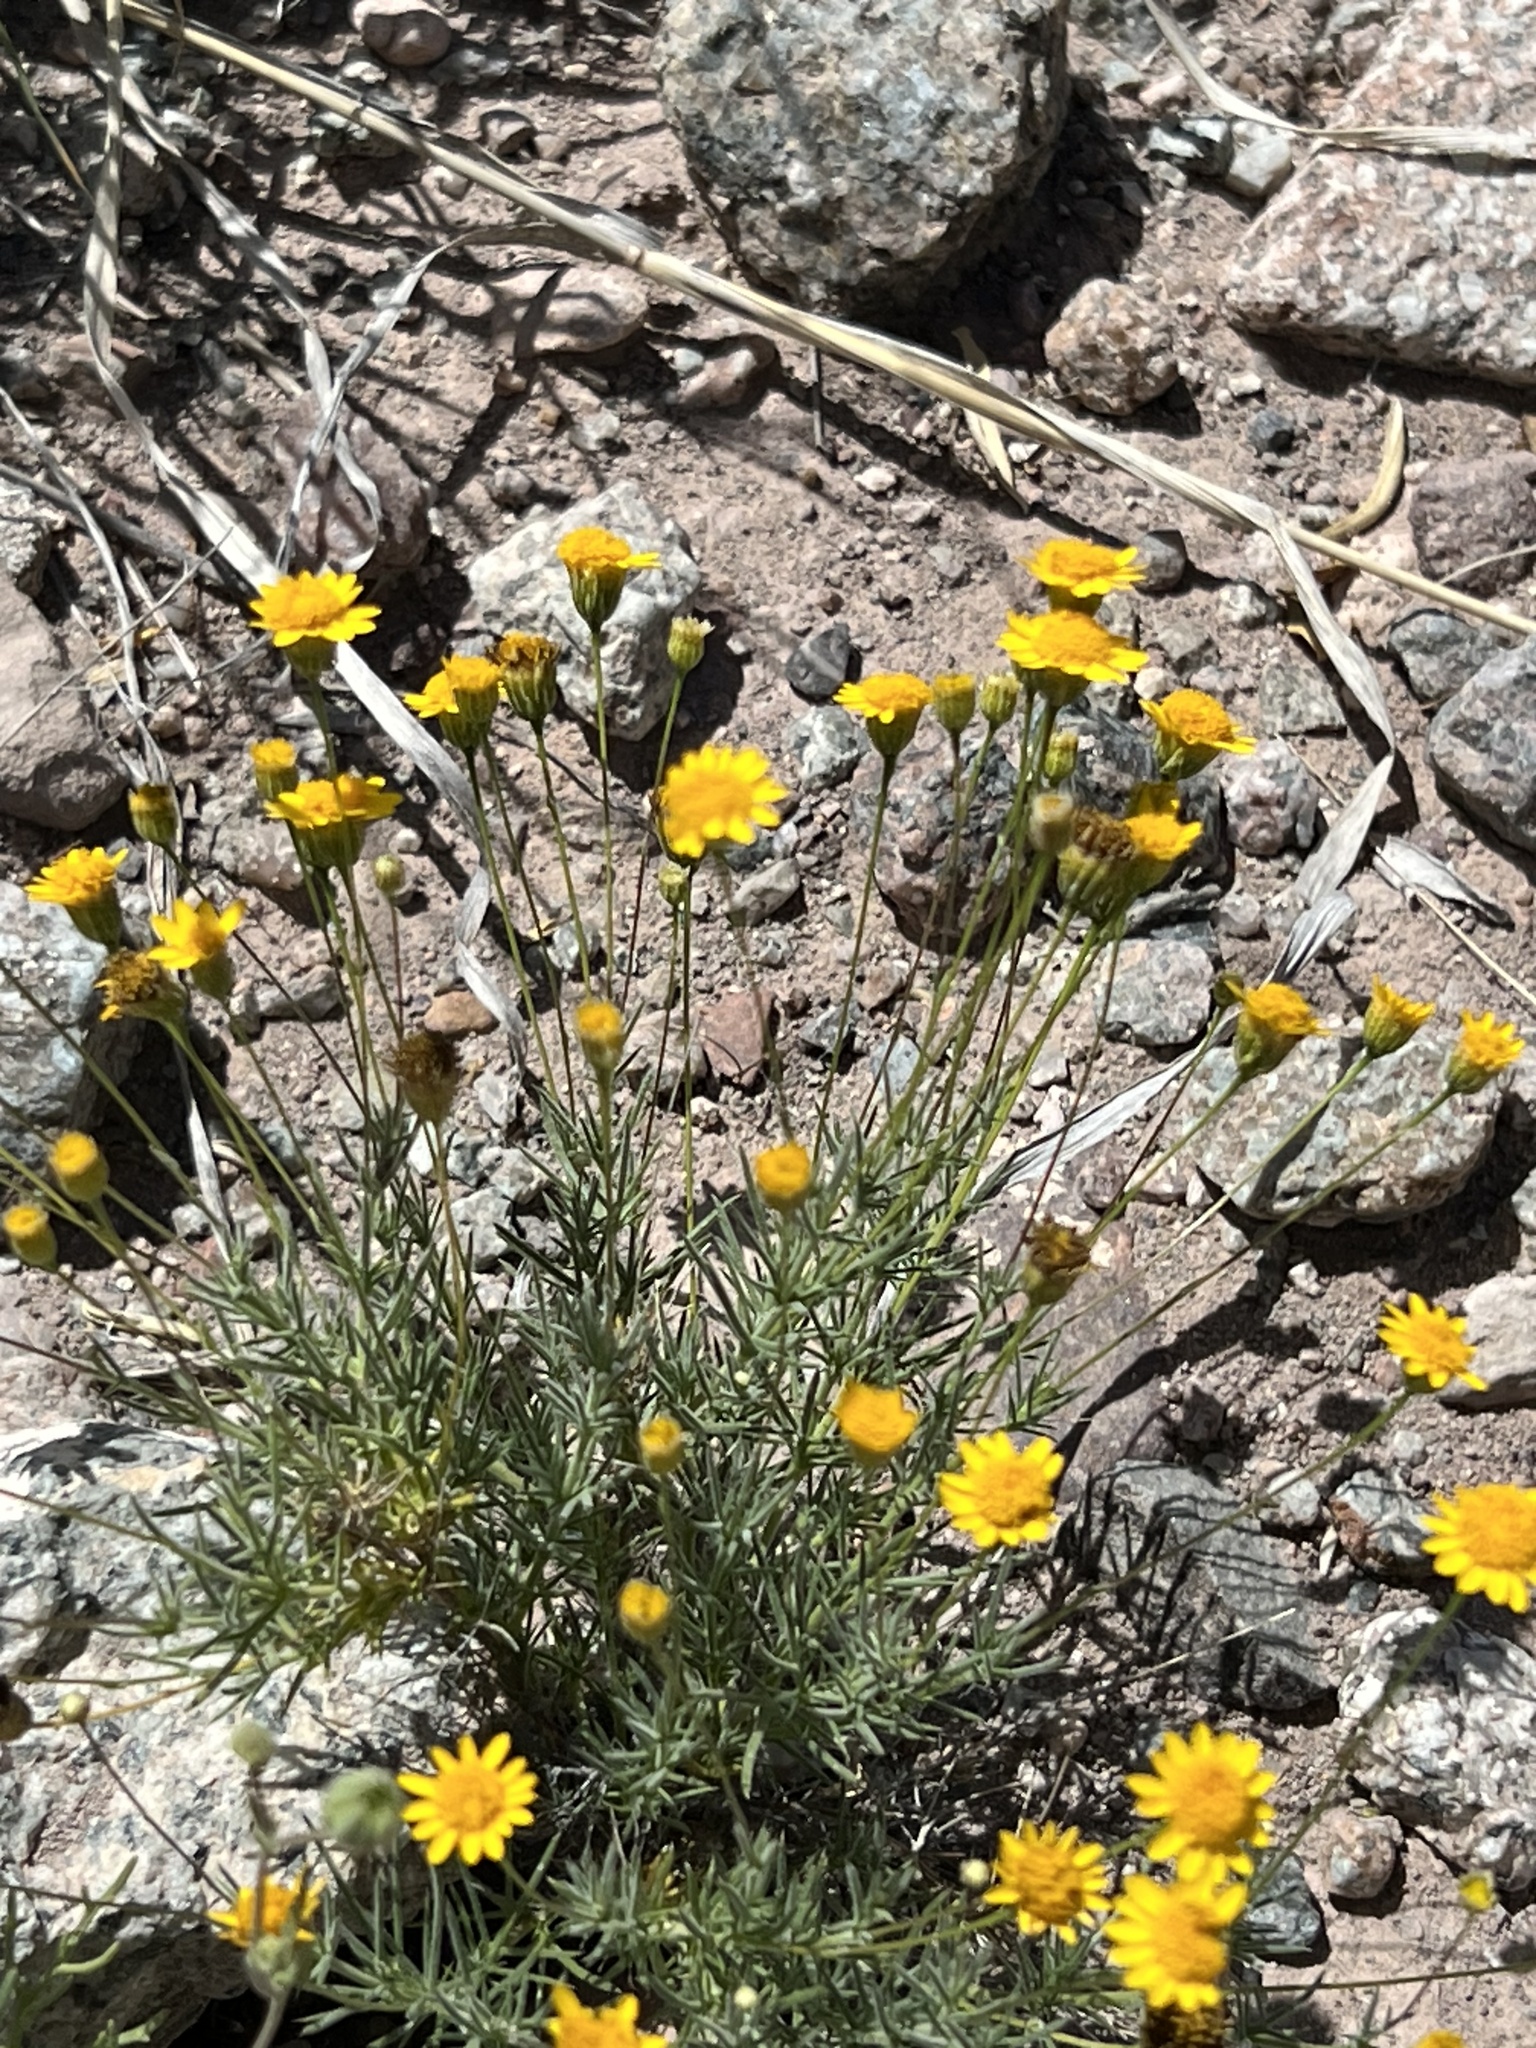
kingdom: Plantae
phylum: Tracheophyta
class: Magnoliopsida
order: Asterales
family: Asteraceae
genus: Thymophylla
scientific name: Thymophylla pentachaeta
